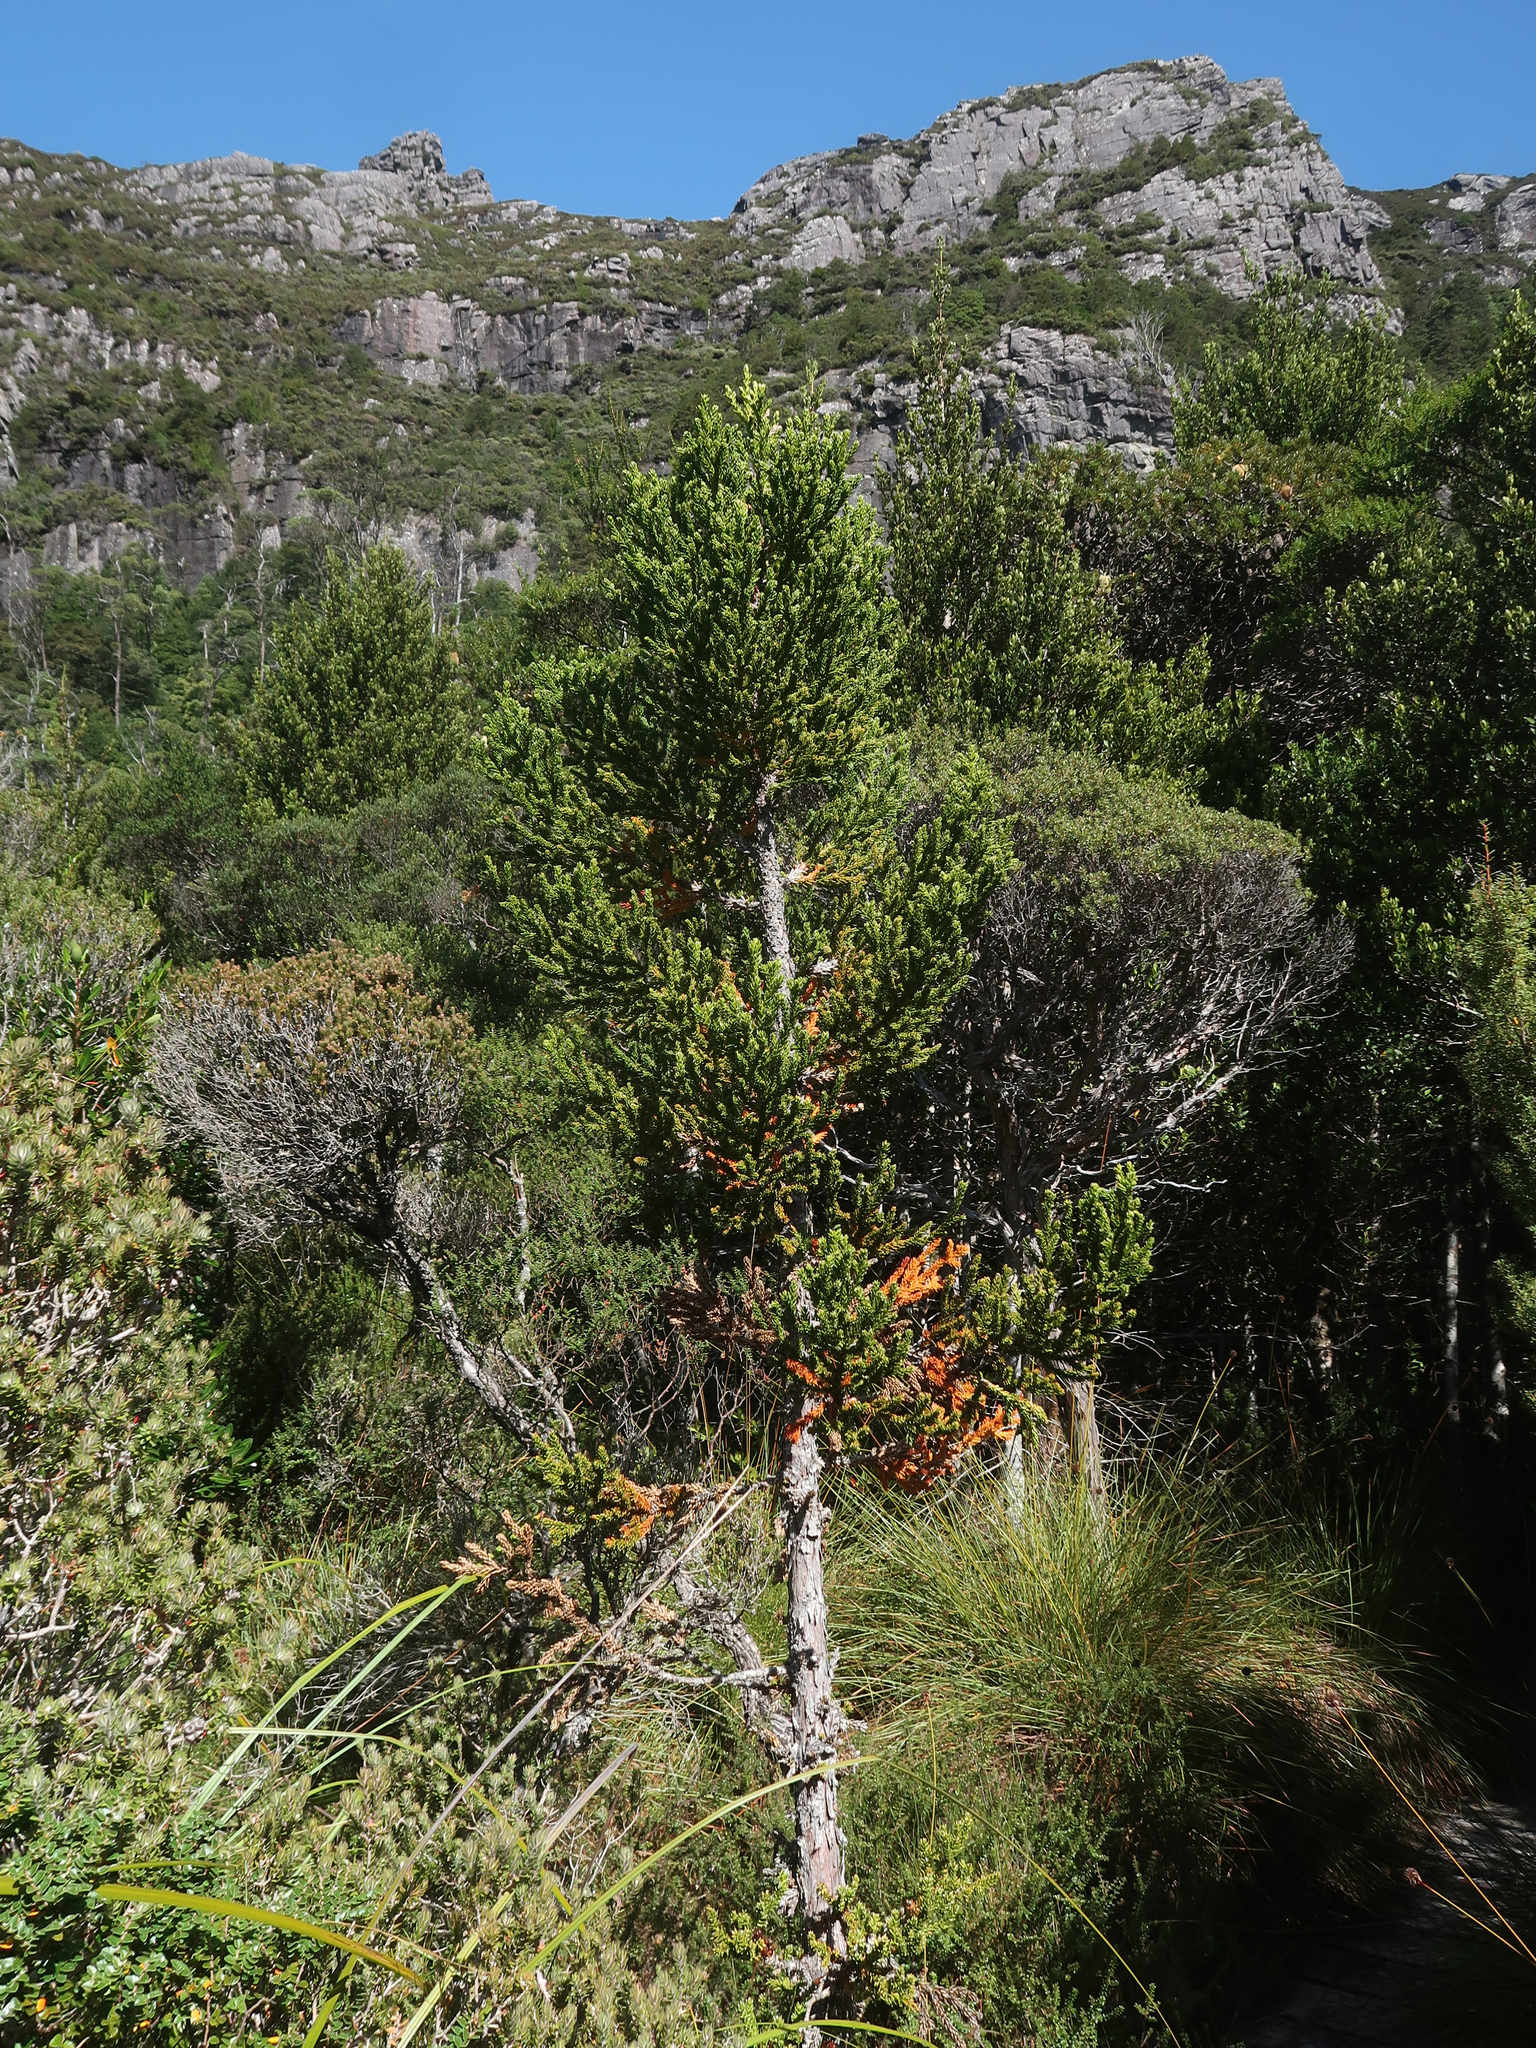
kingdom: Plantae
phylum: Tracheophyta
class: Pinopsida
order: Pinales
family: Cupressaceae
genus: Athrotaxis
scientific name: Athrotaxis selaginoides
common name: King william pine
